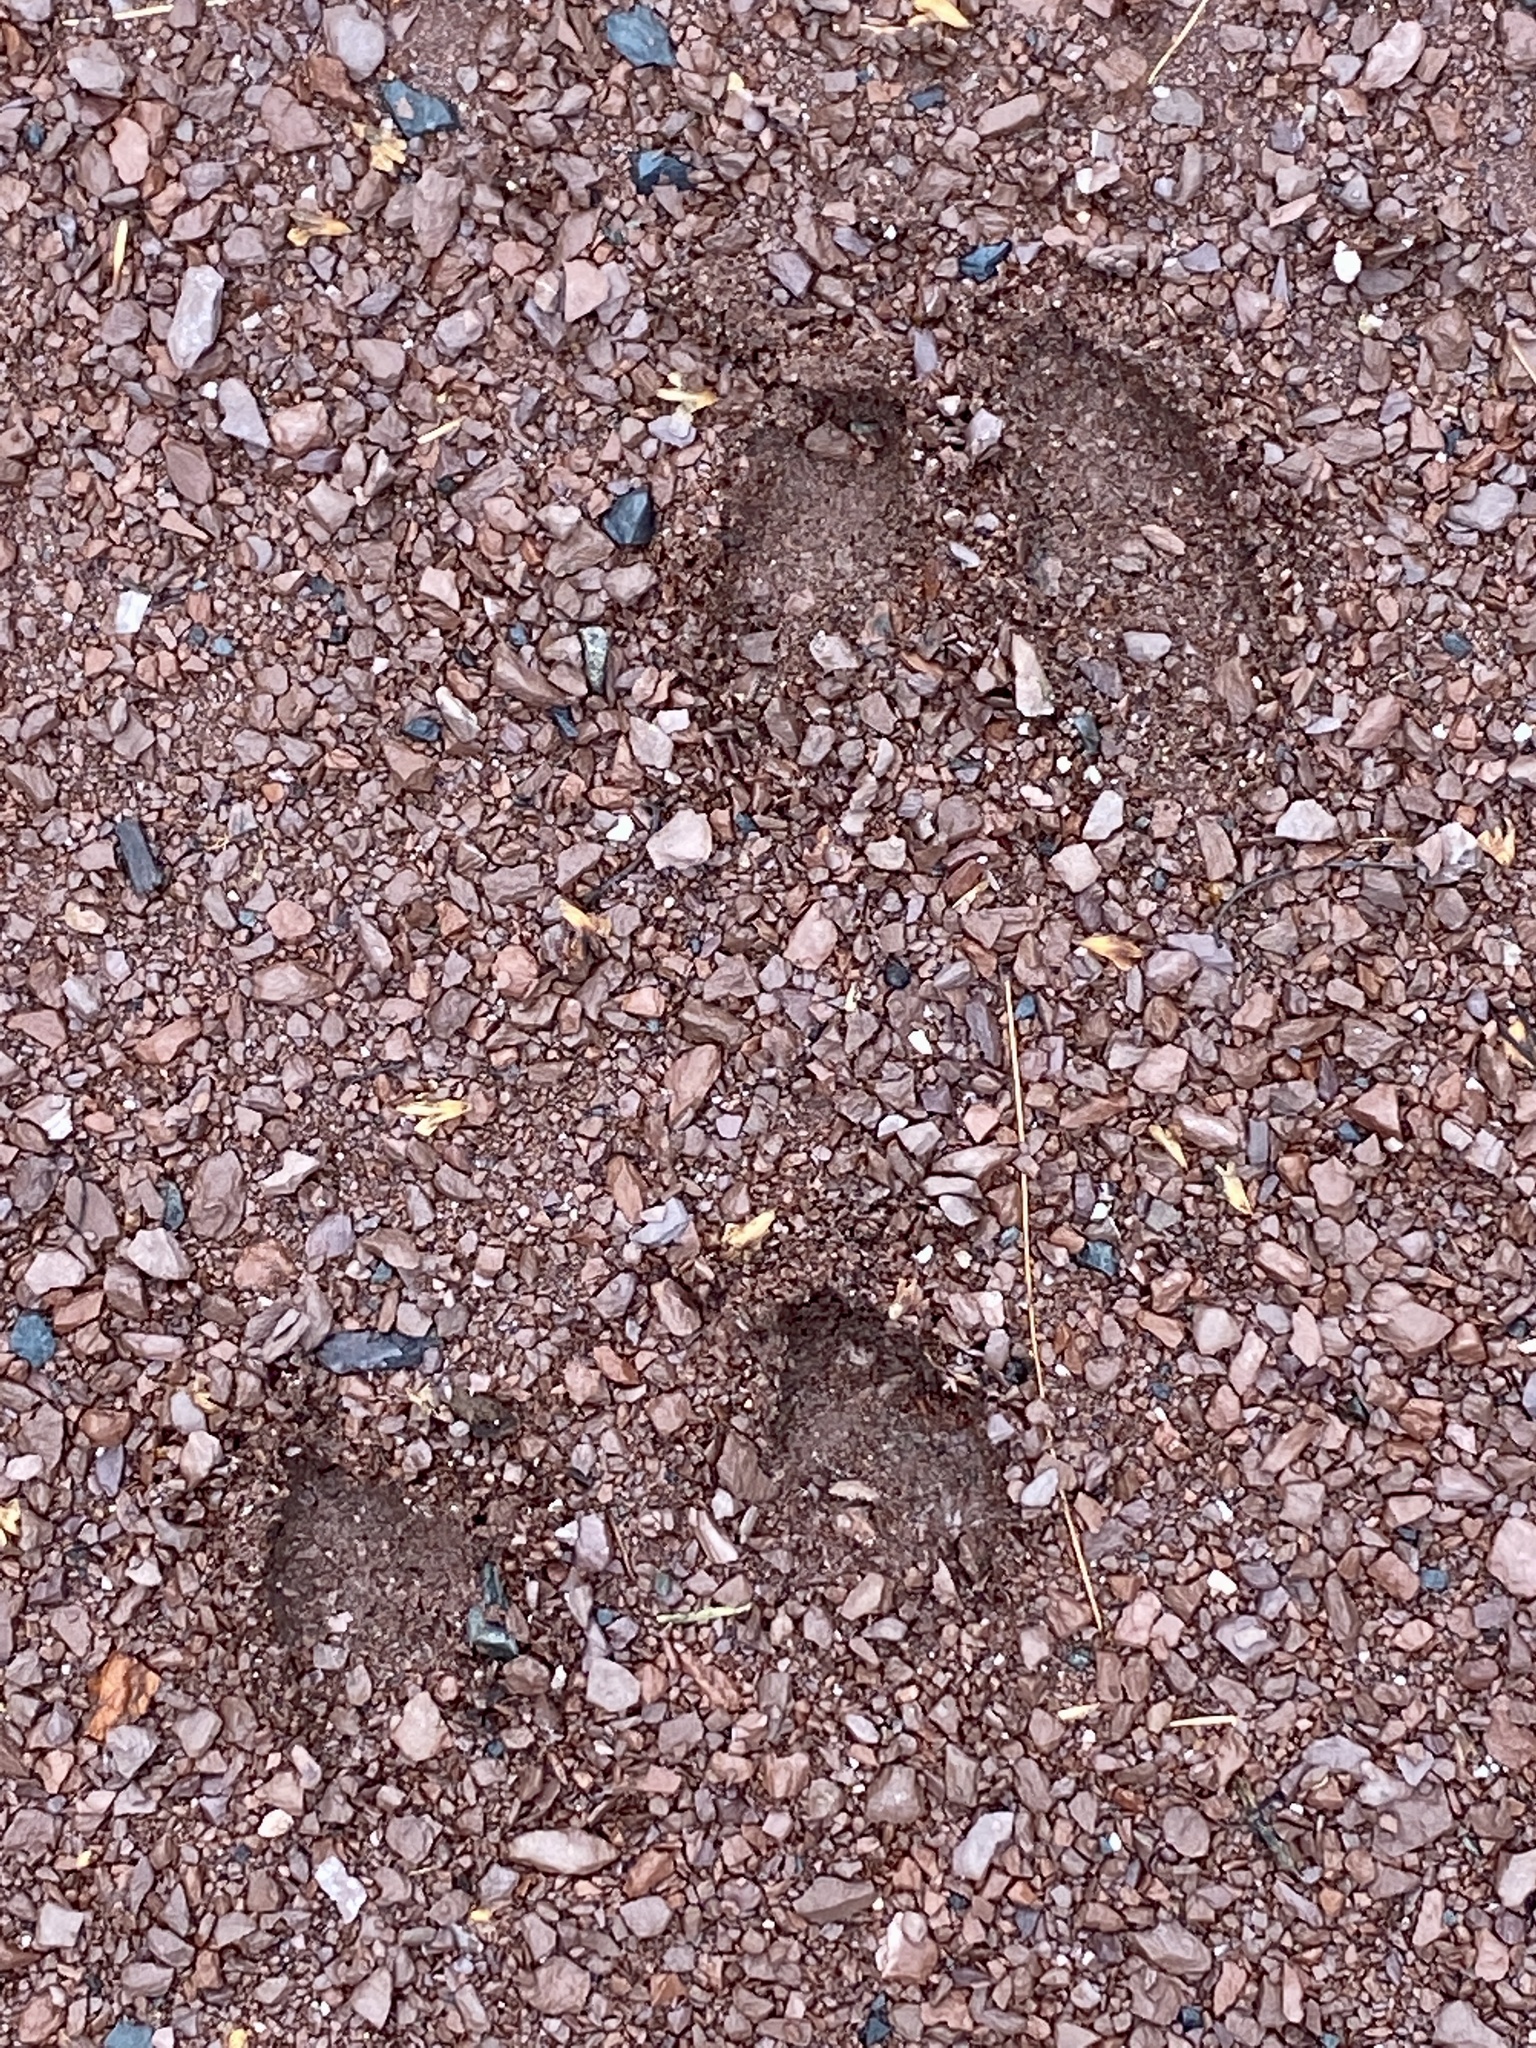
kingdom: Animalia
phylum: Chordata
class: Mammalia
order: Artiodactyla
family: Cervidae
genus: Odocoileus
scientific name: Odocoileus virginianus
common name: White-tailed deer
